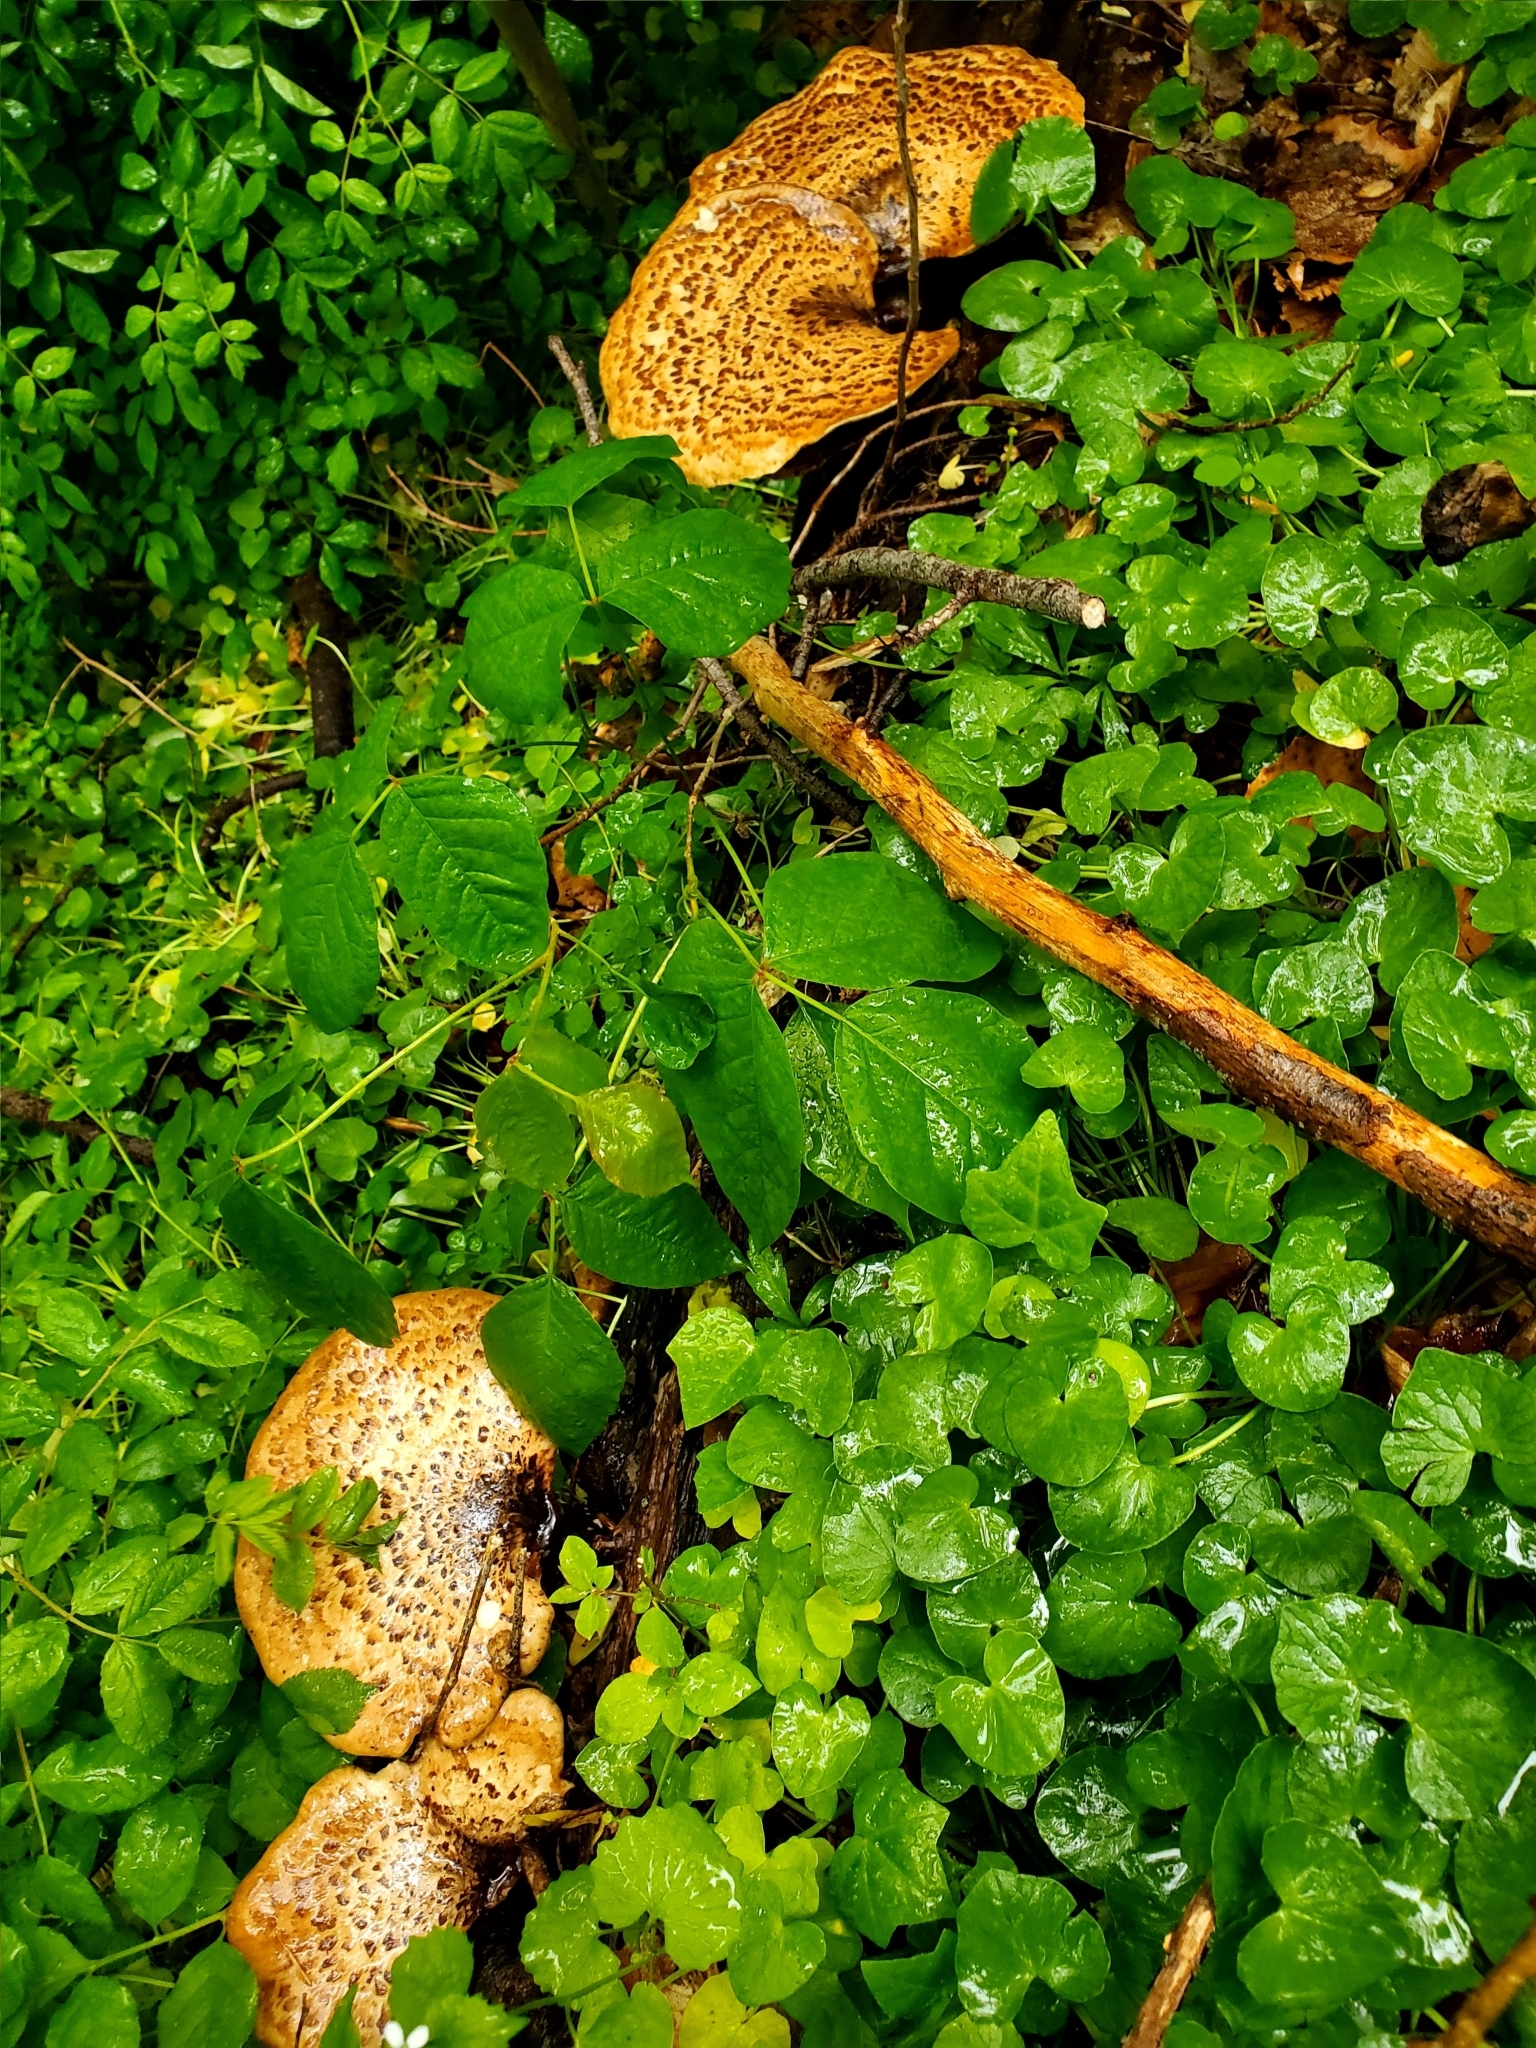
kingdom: Fungi
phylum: Basidiomycota
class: Agaricomycetes
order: Polyporales
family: Polyporaceae
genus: Cerioporus
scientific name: Cerioporus squamosus
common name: Dryad's saddle
